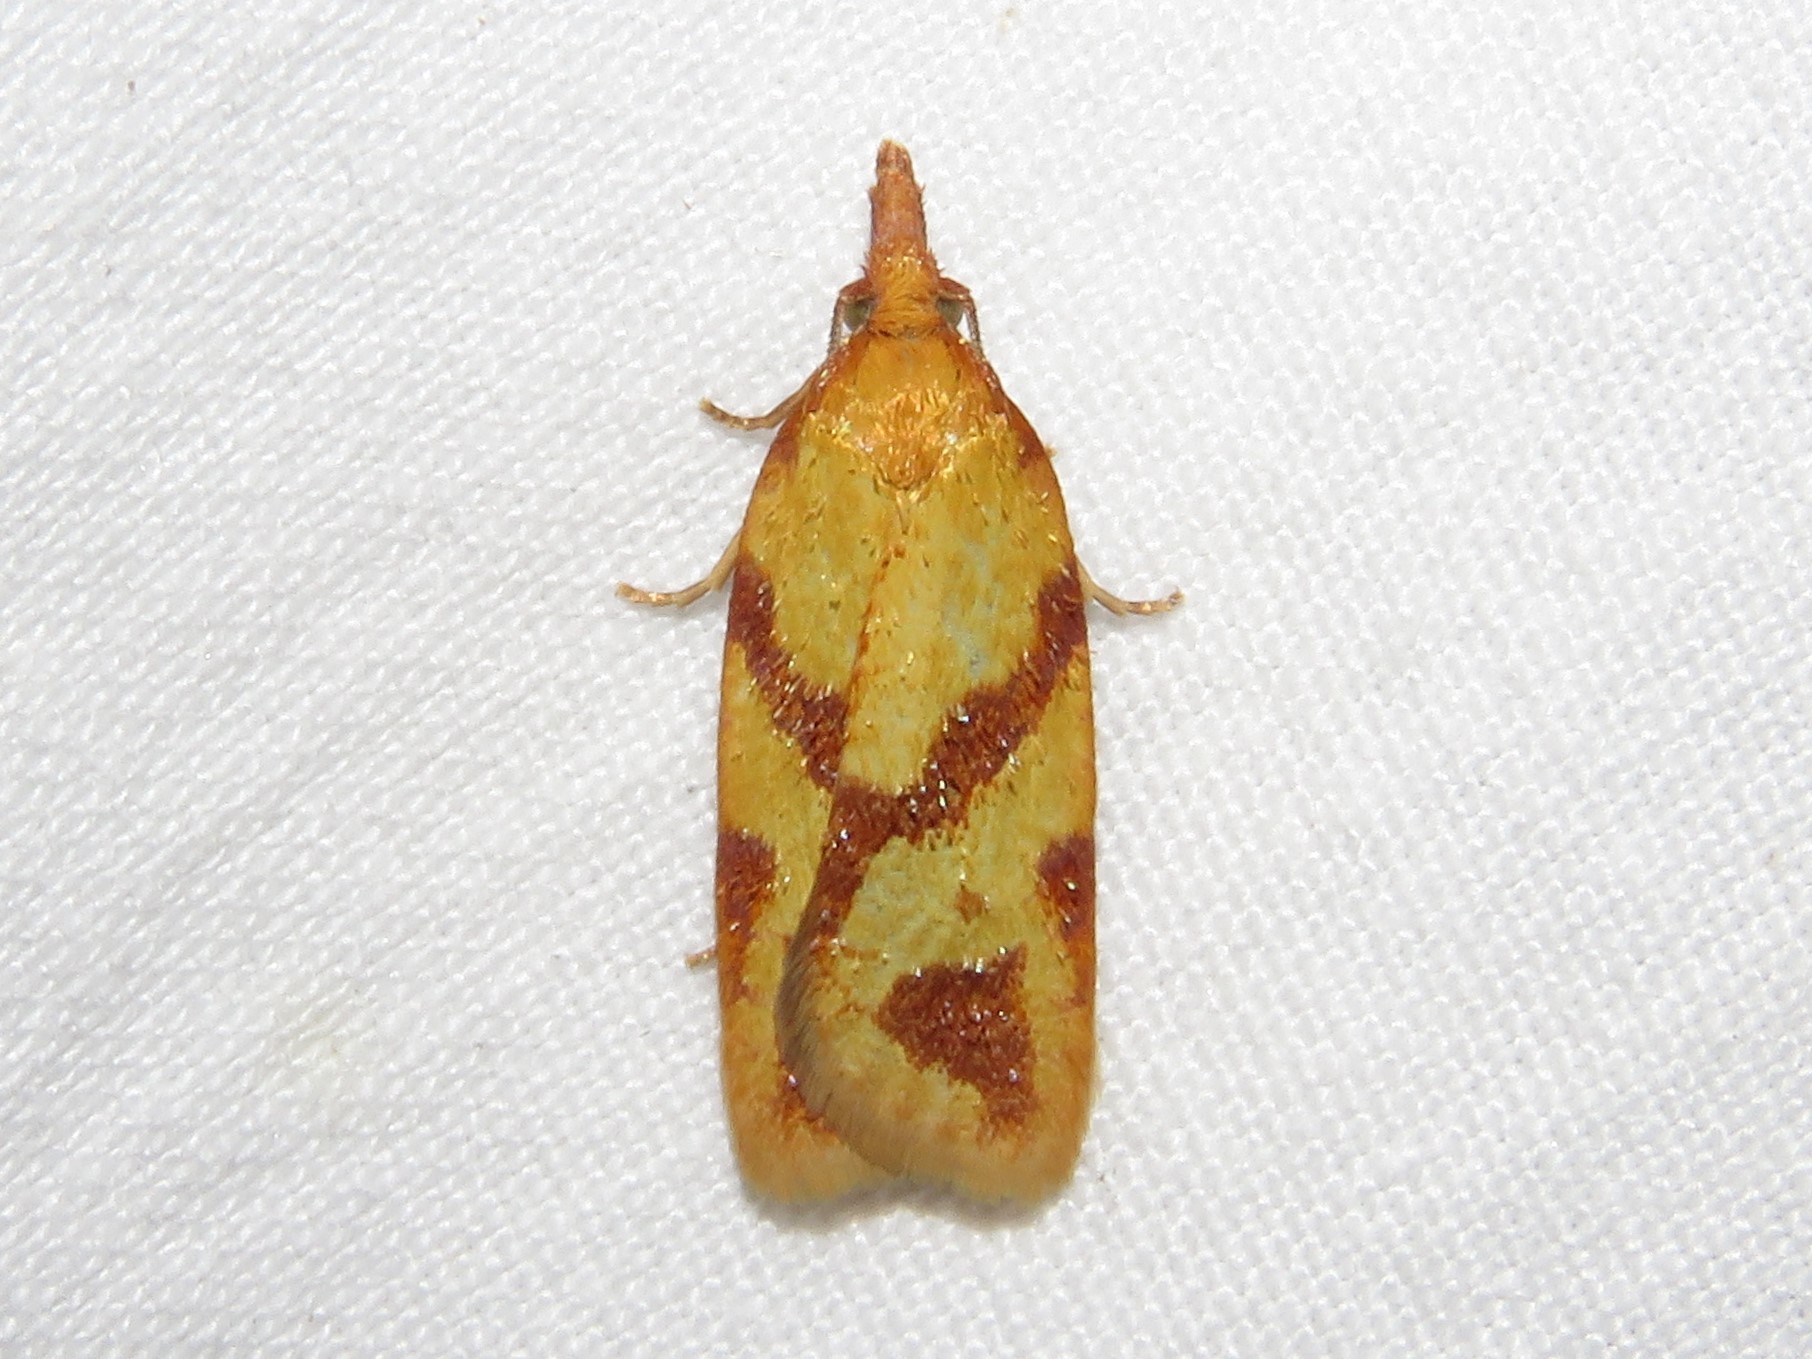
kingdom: Animalia
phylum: Arthropoda
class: Insecta
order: Lepidoptera
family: Tortricidae
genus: Sparganothis
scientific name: Sparganothis unifasciana
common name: One-lined sparganothis moth
